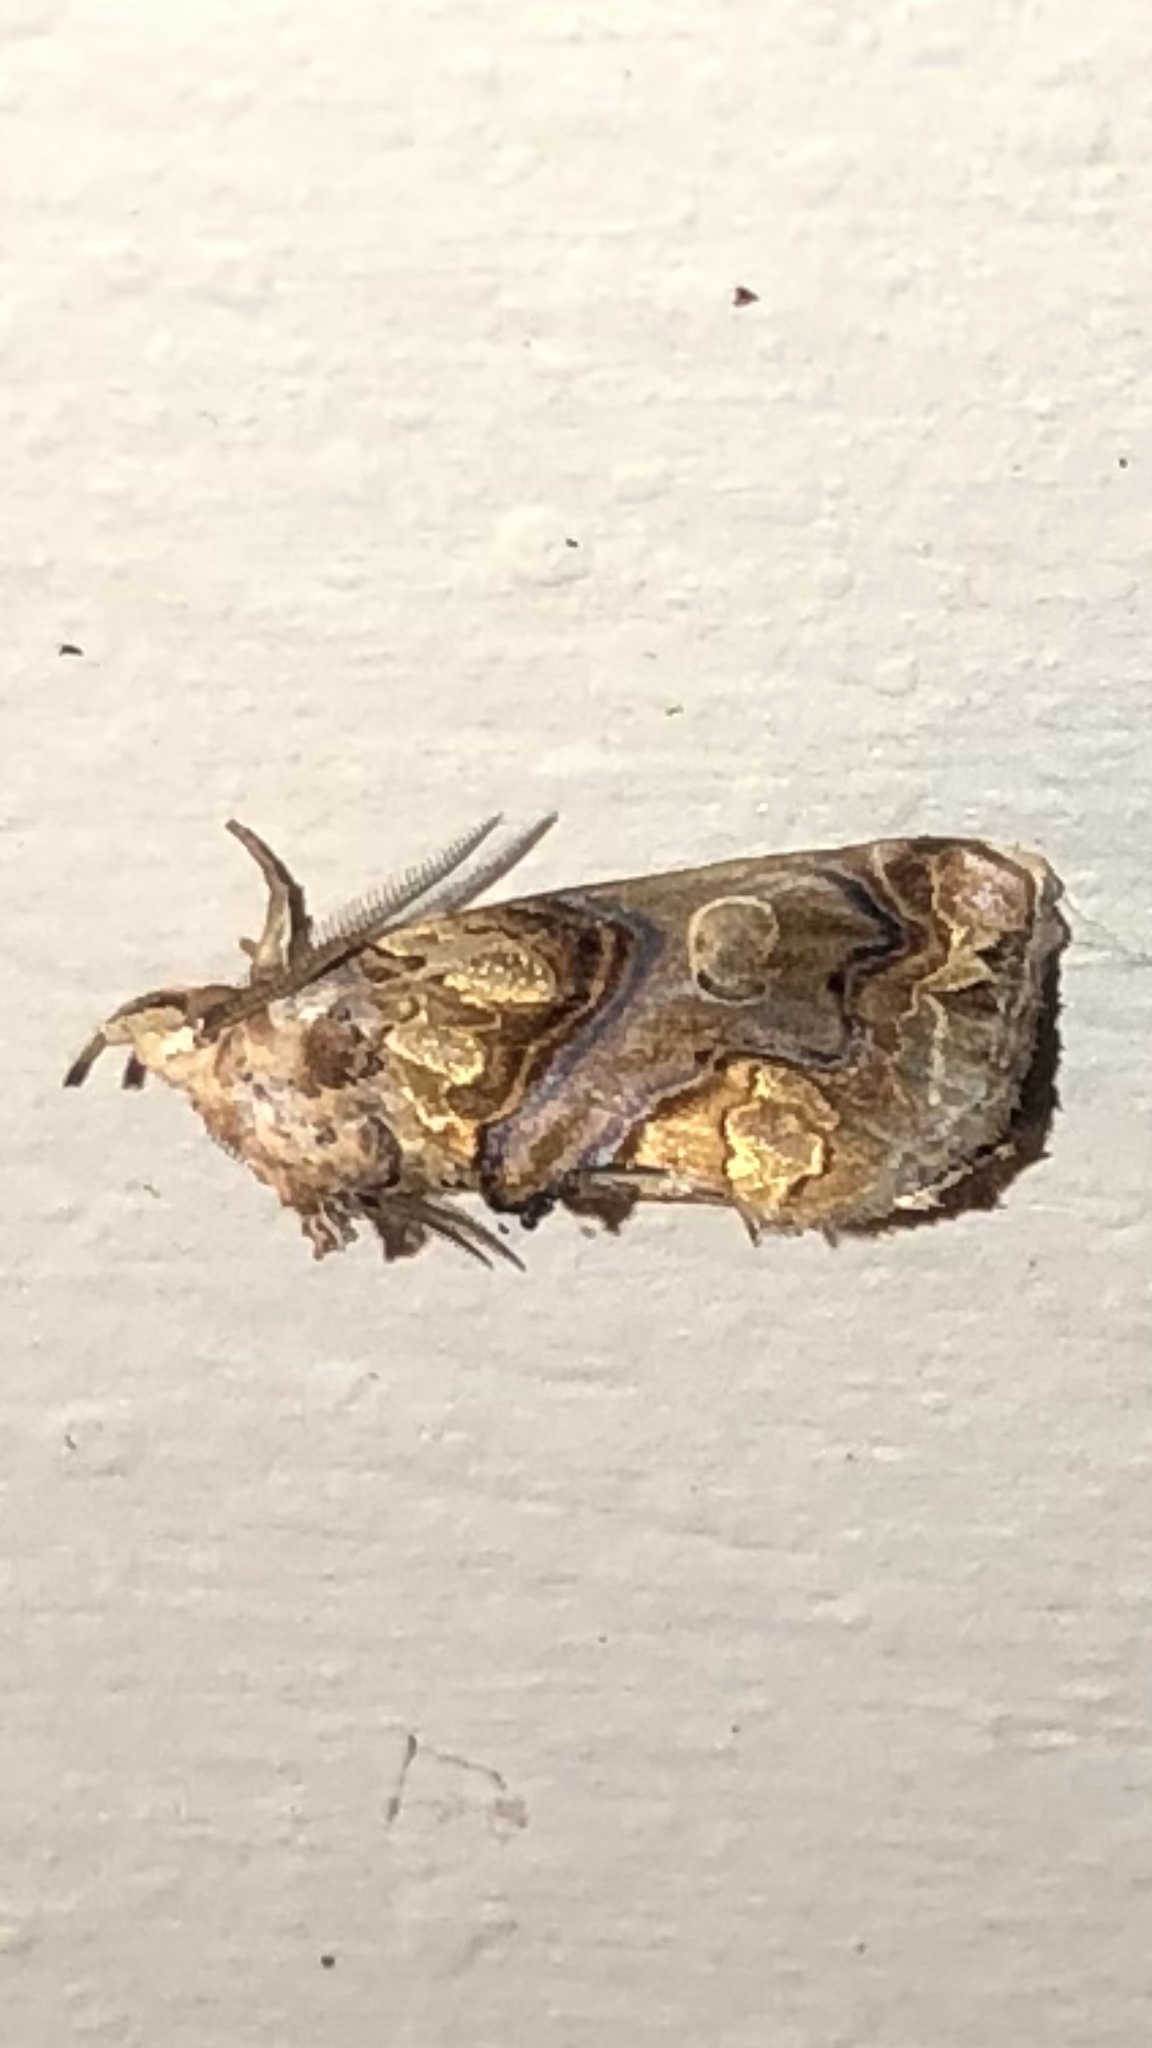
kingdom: Animalia
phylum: Arthropoda
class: Insecta
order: Lepidoptera
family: Erebidae
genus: Plusiodonta
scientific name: Plusiodonta compressipalpis
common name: Moonseed moth
